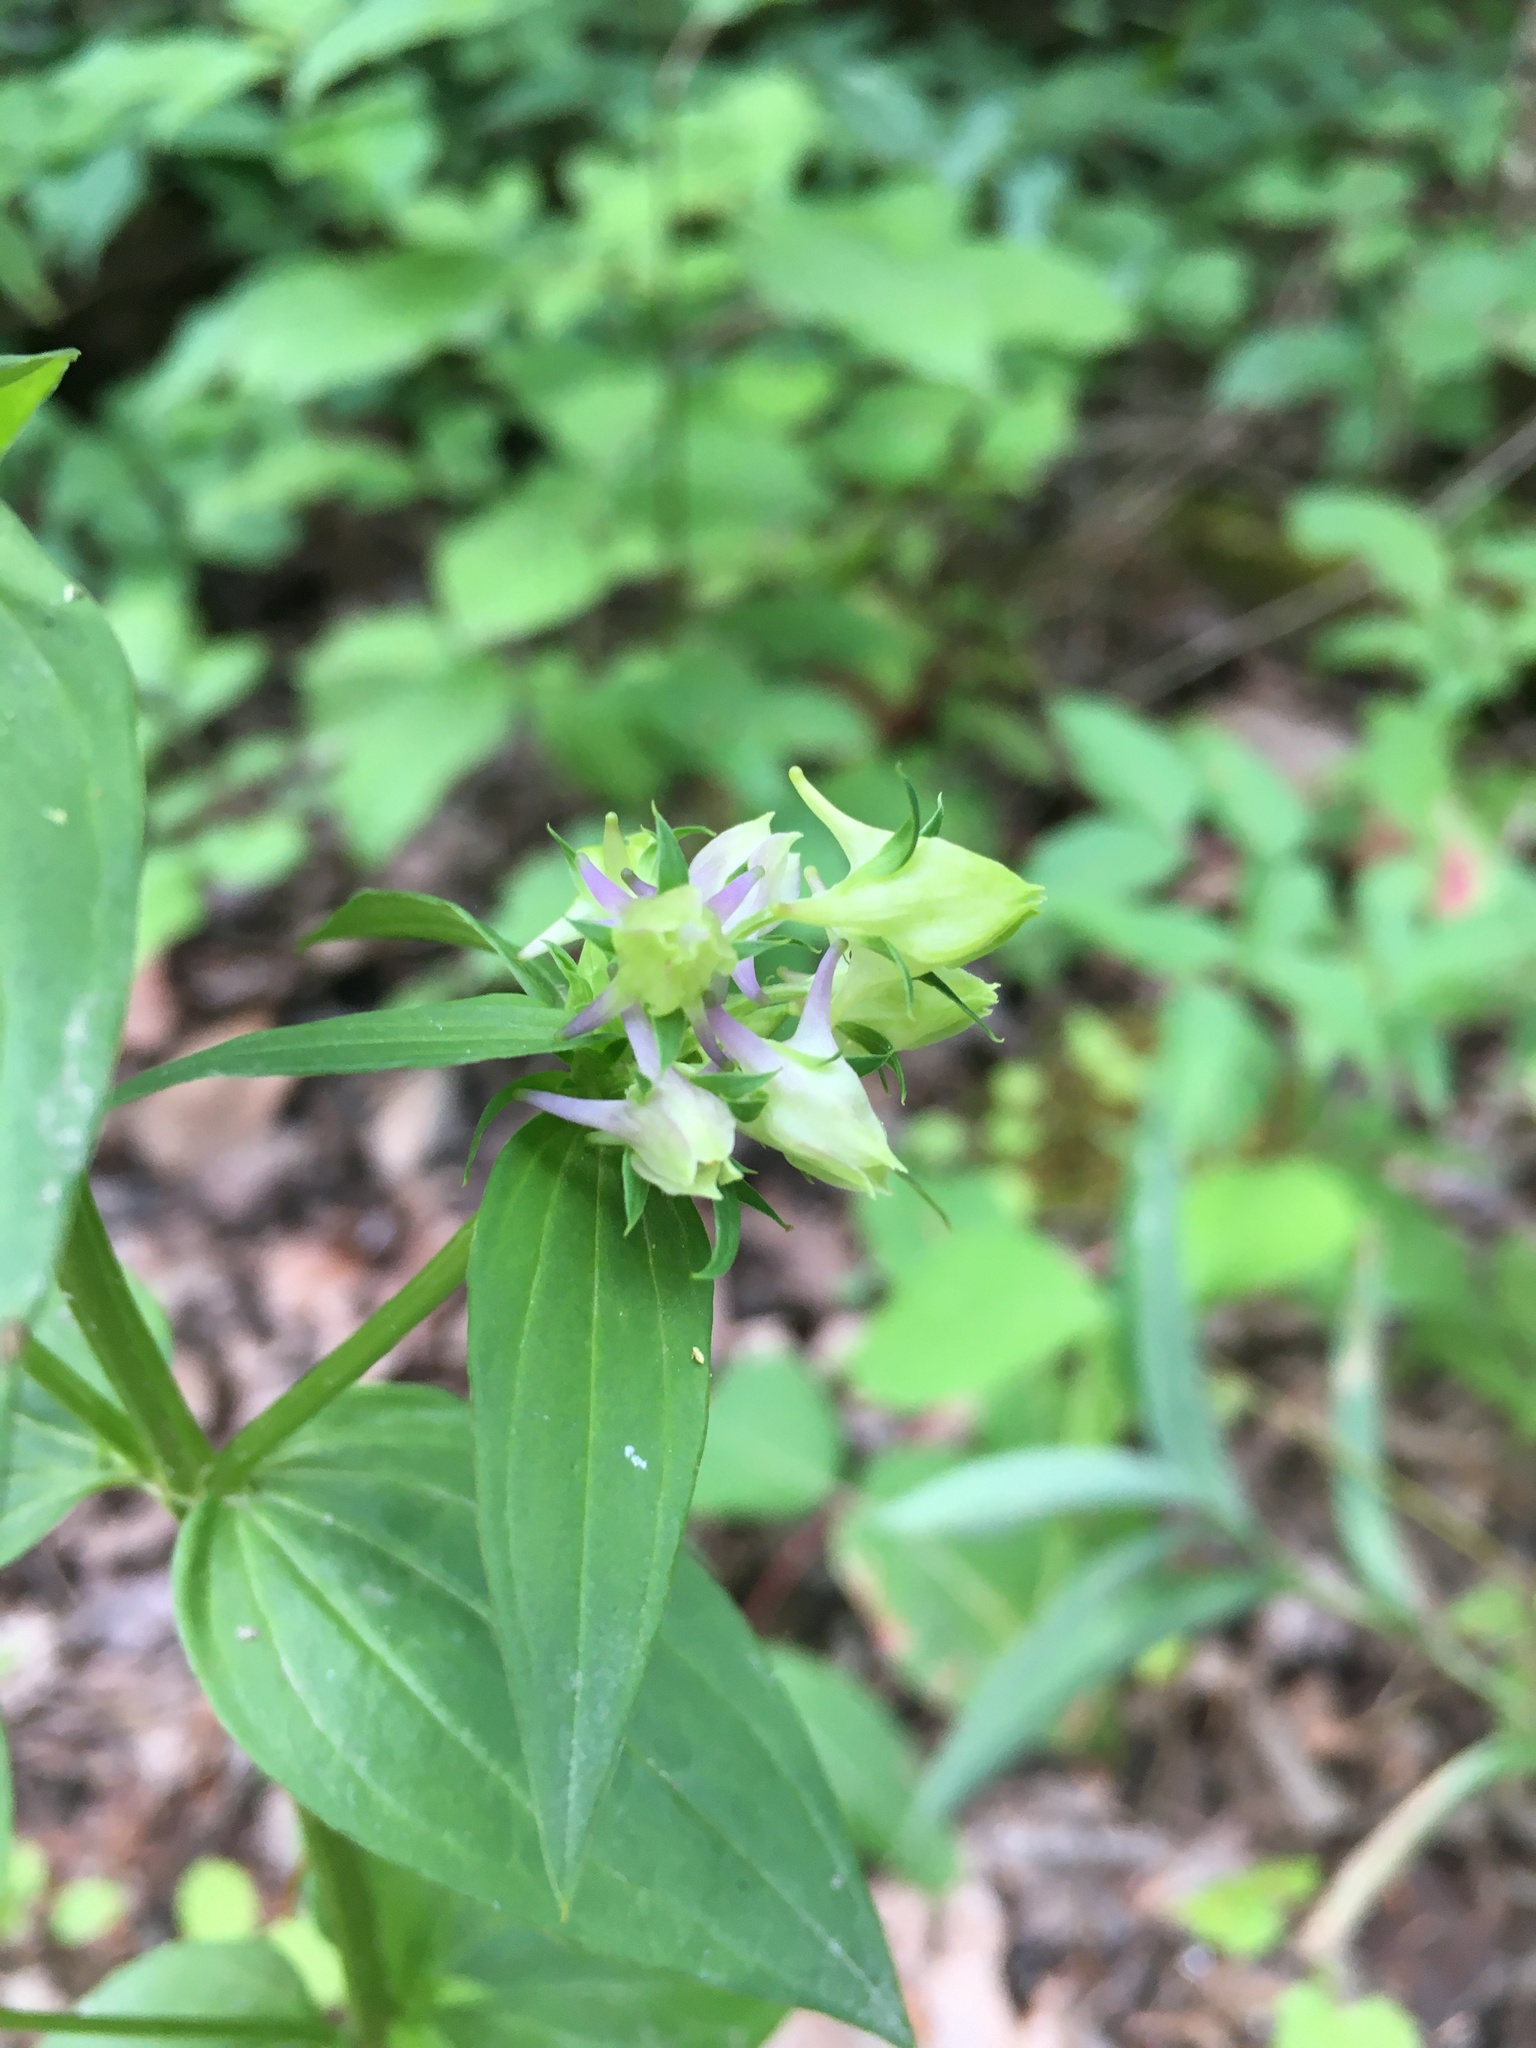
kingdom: Plantae
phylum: Tracheophyta
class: Magnoliopsida
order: Gentianales
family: Gentianaceae
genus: Halenia
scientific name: Halenia deflexa
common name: American spurred gentian
